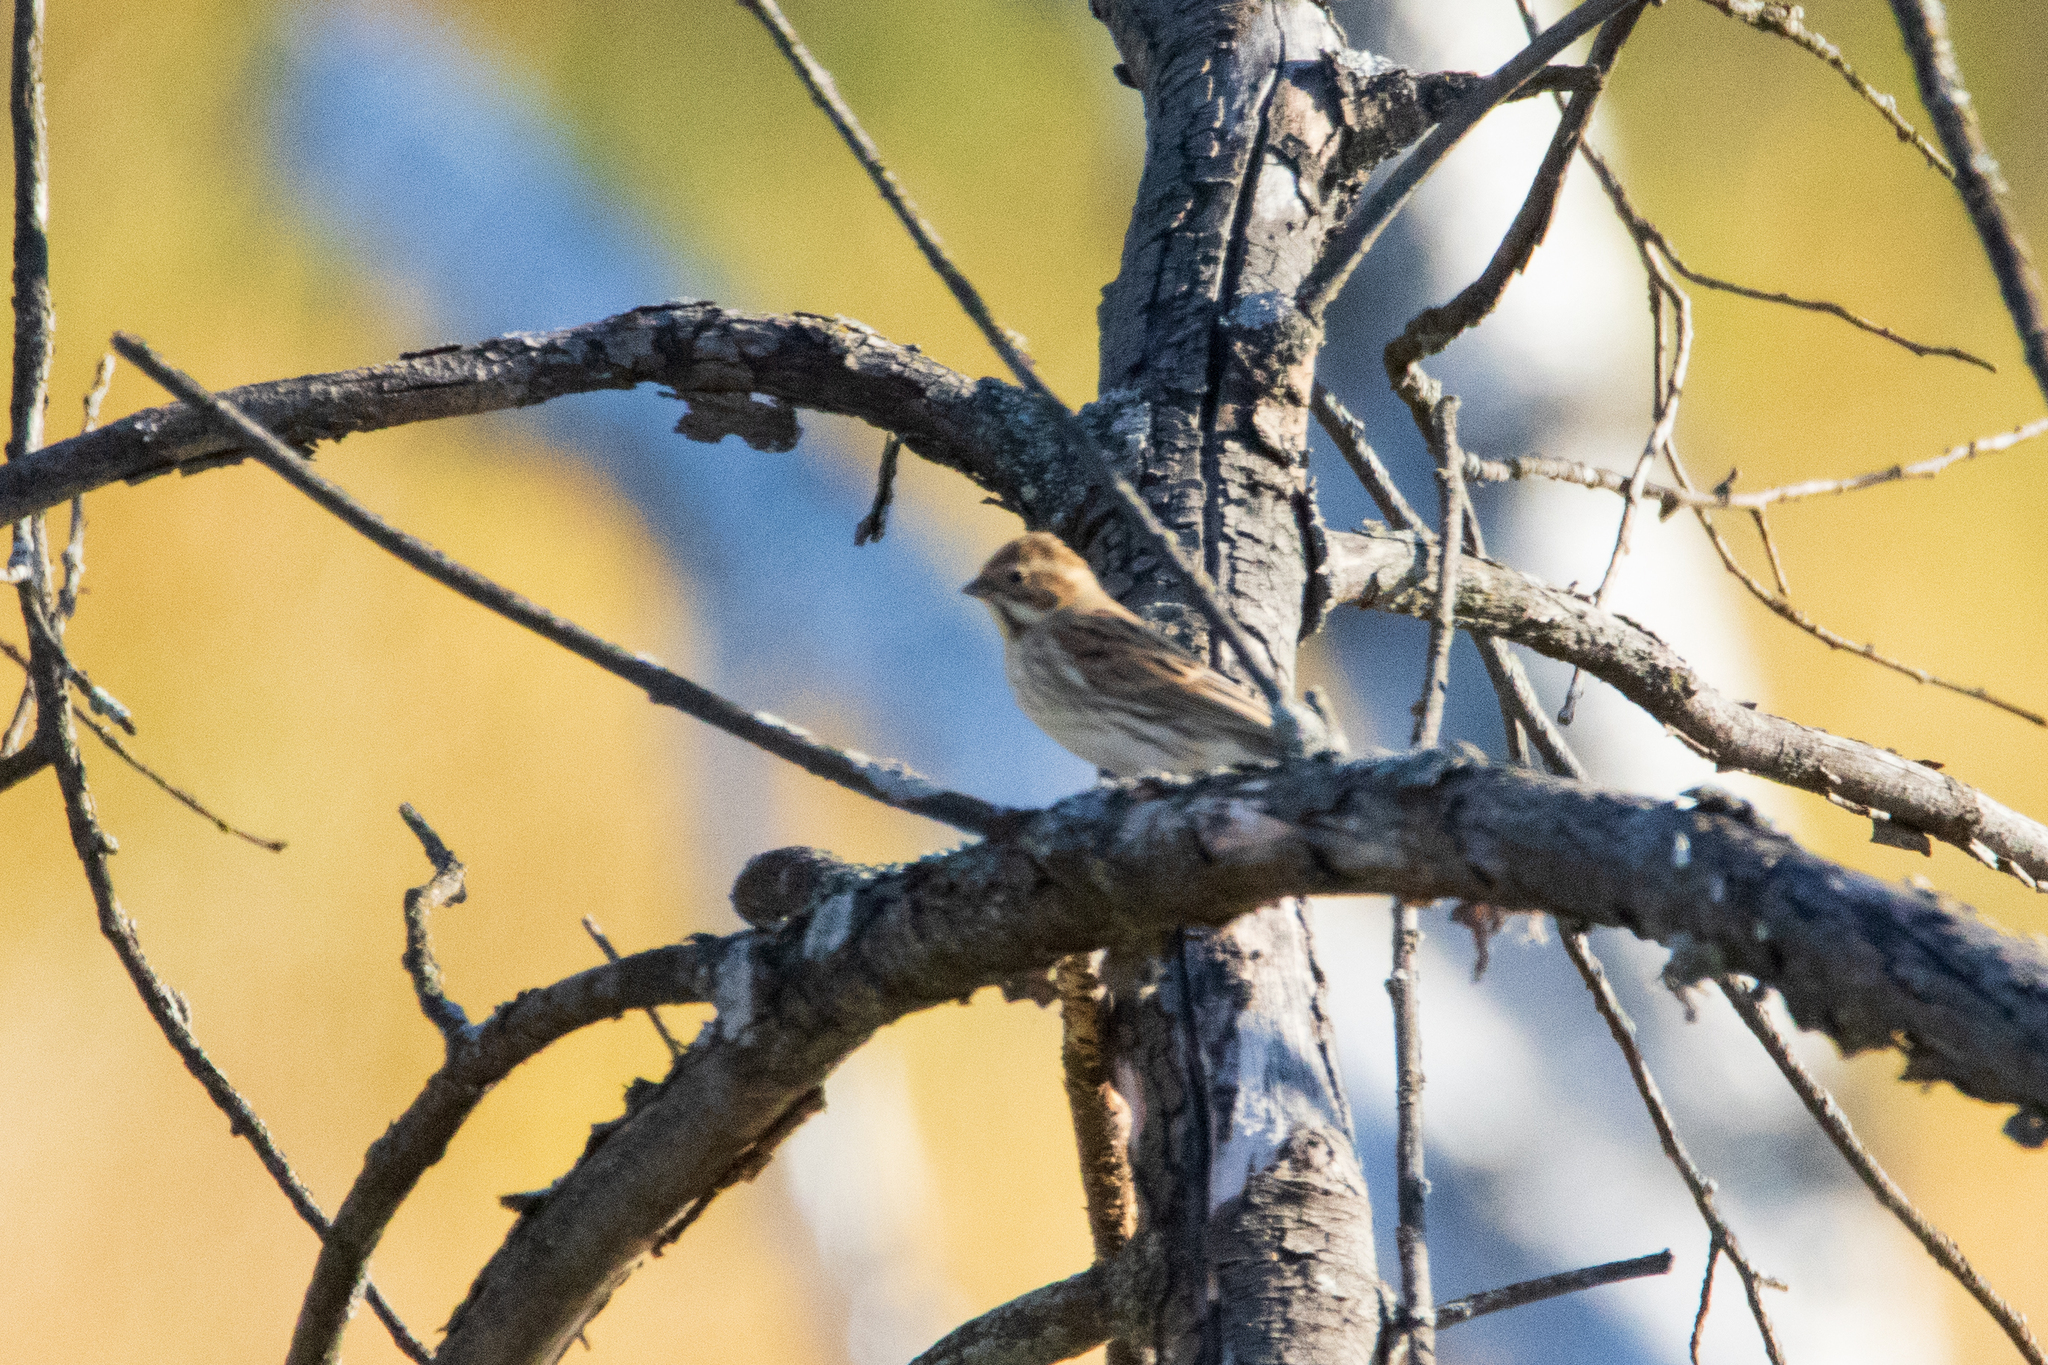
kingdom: Animalia
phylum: Chordata
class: Aves
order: Passeriformes
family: Emberizidae
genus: Emberiza
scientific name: Emberiza schoeniclus
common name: Reed bunting
